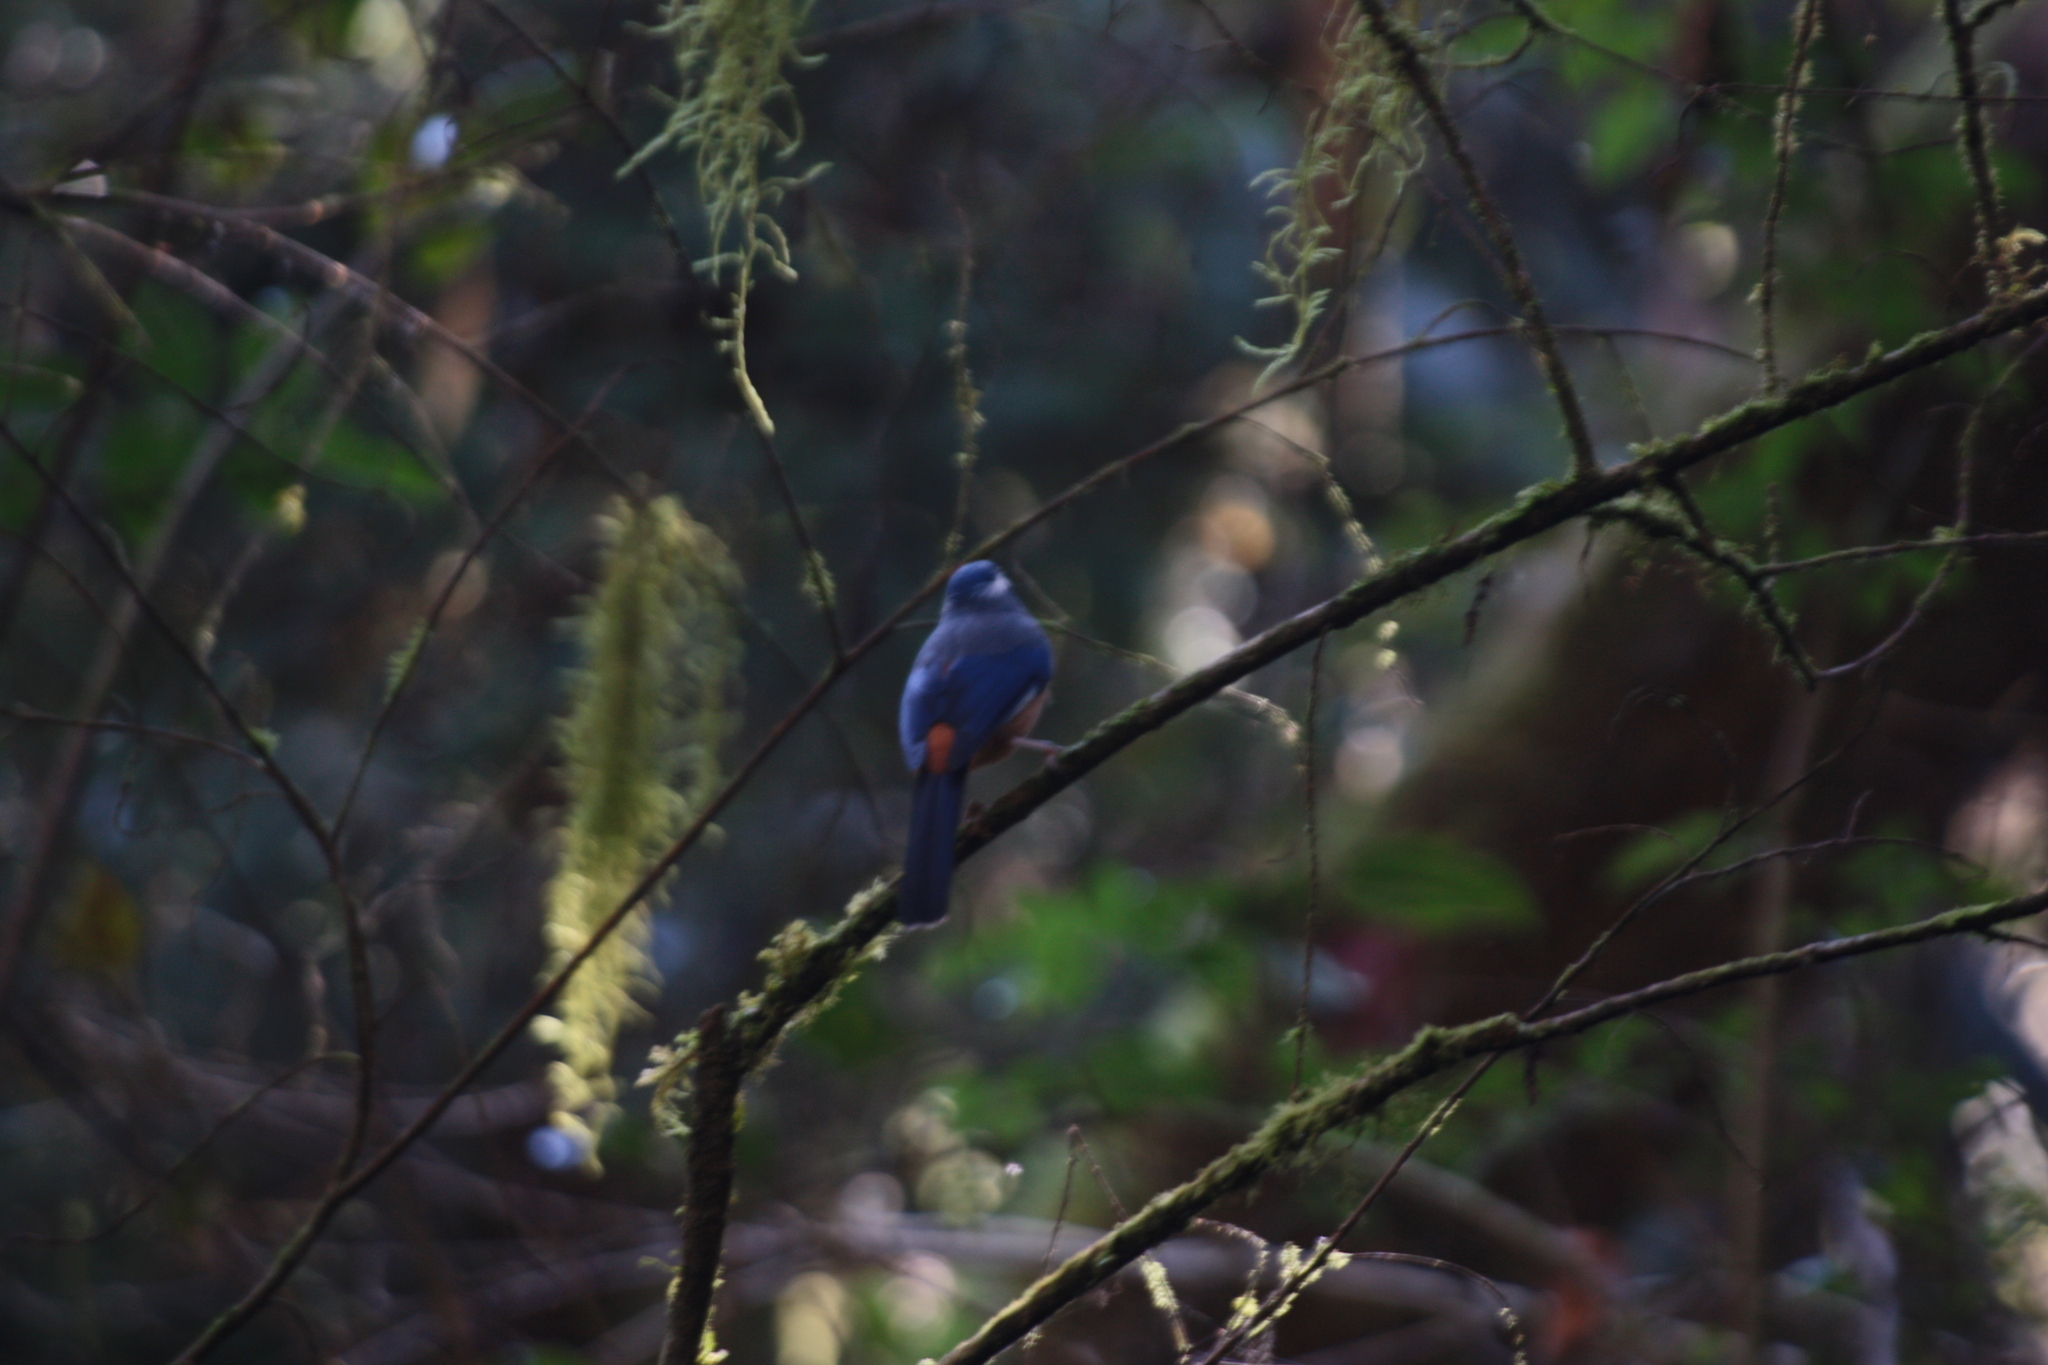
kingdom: Animalia
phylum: Chordata
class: Aves
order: Passeriformes
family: Leiothrichidae
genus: Heterophasia
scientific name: Heterophasia auricularis
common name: White-eared sibia
